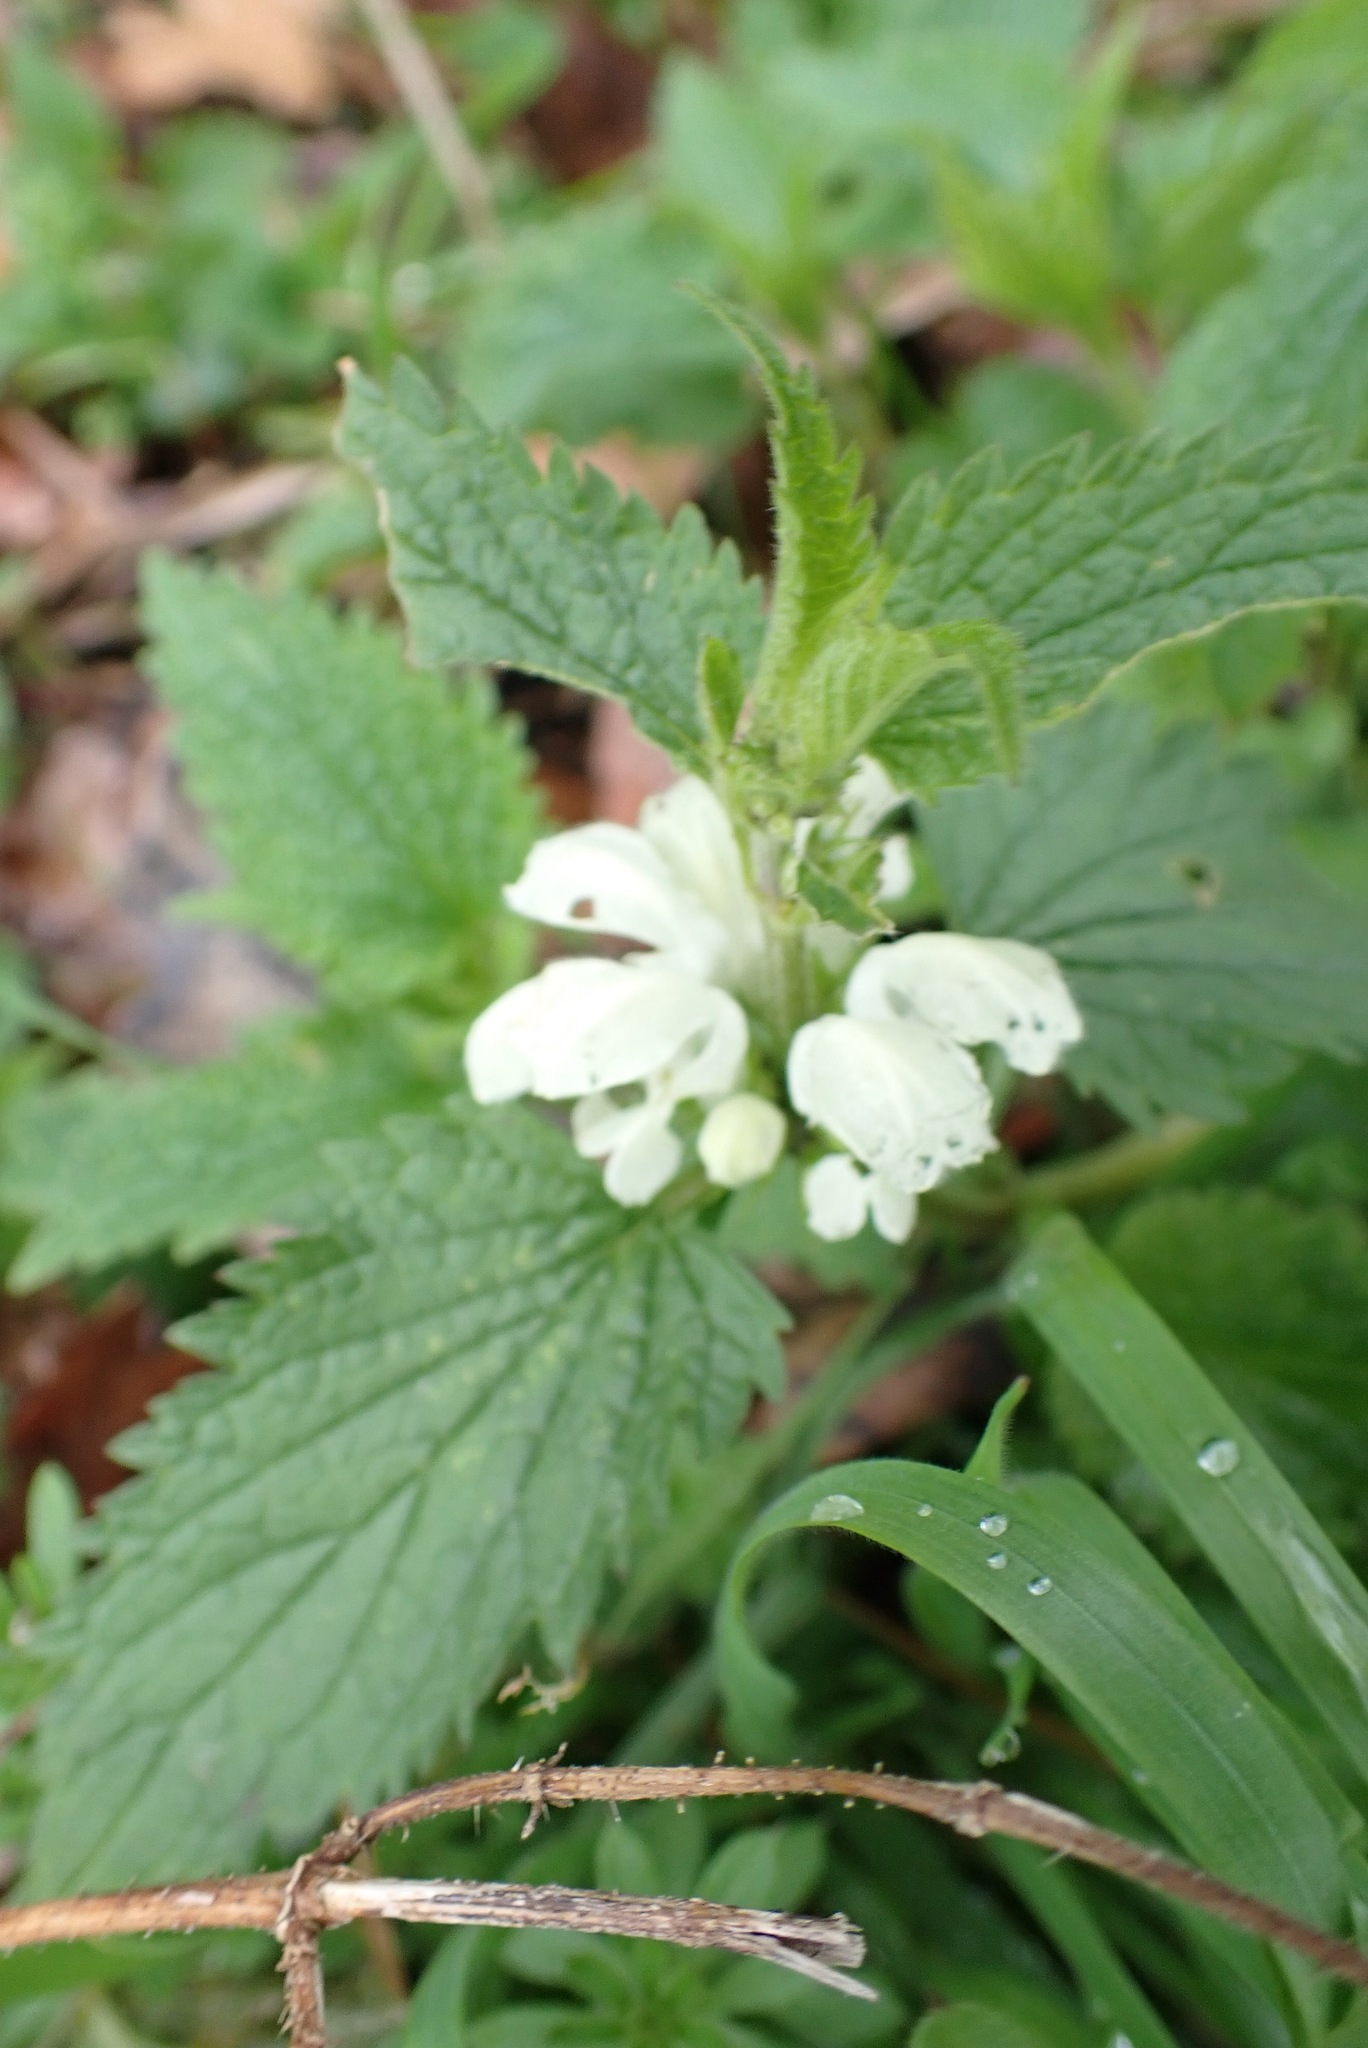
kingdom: Plantae
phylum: Tracheophyta
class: Magnoliopsida
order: Lamiales
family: Lamiaceae
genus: Lamium
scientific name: Lamium album
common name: White dead-nettle
